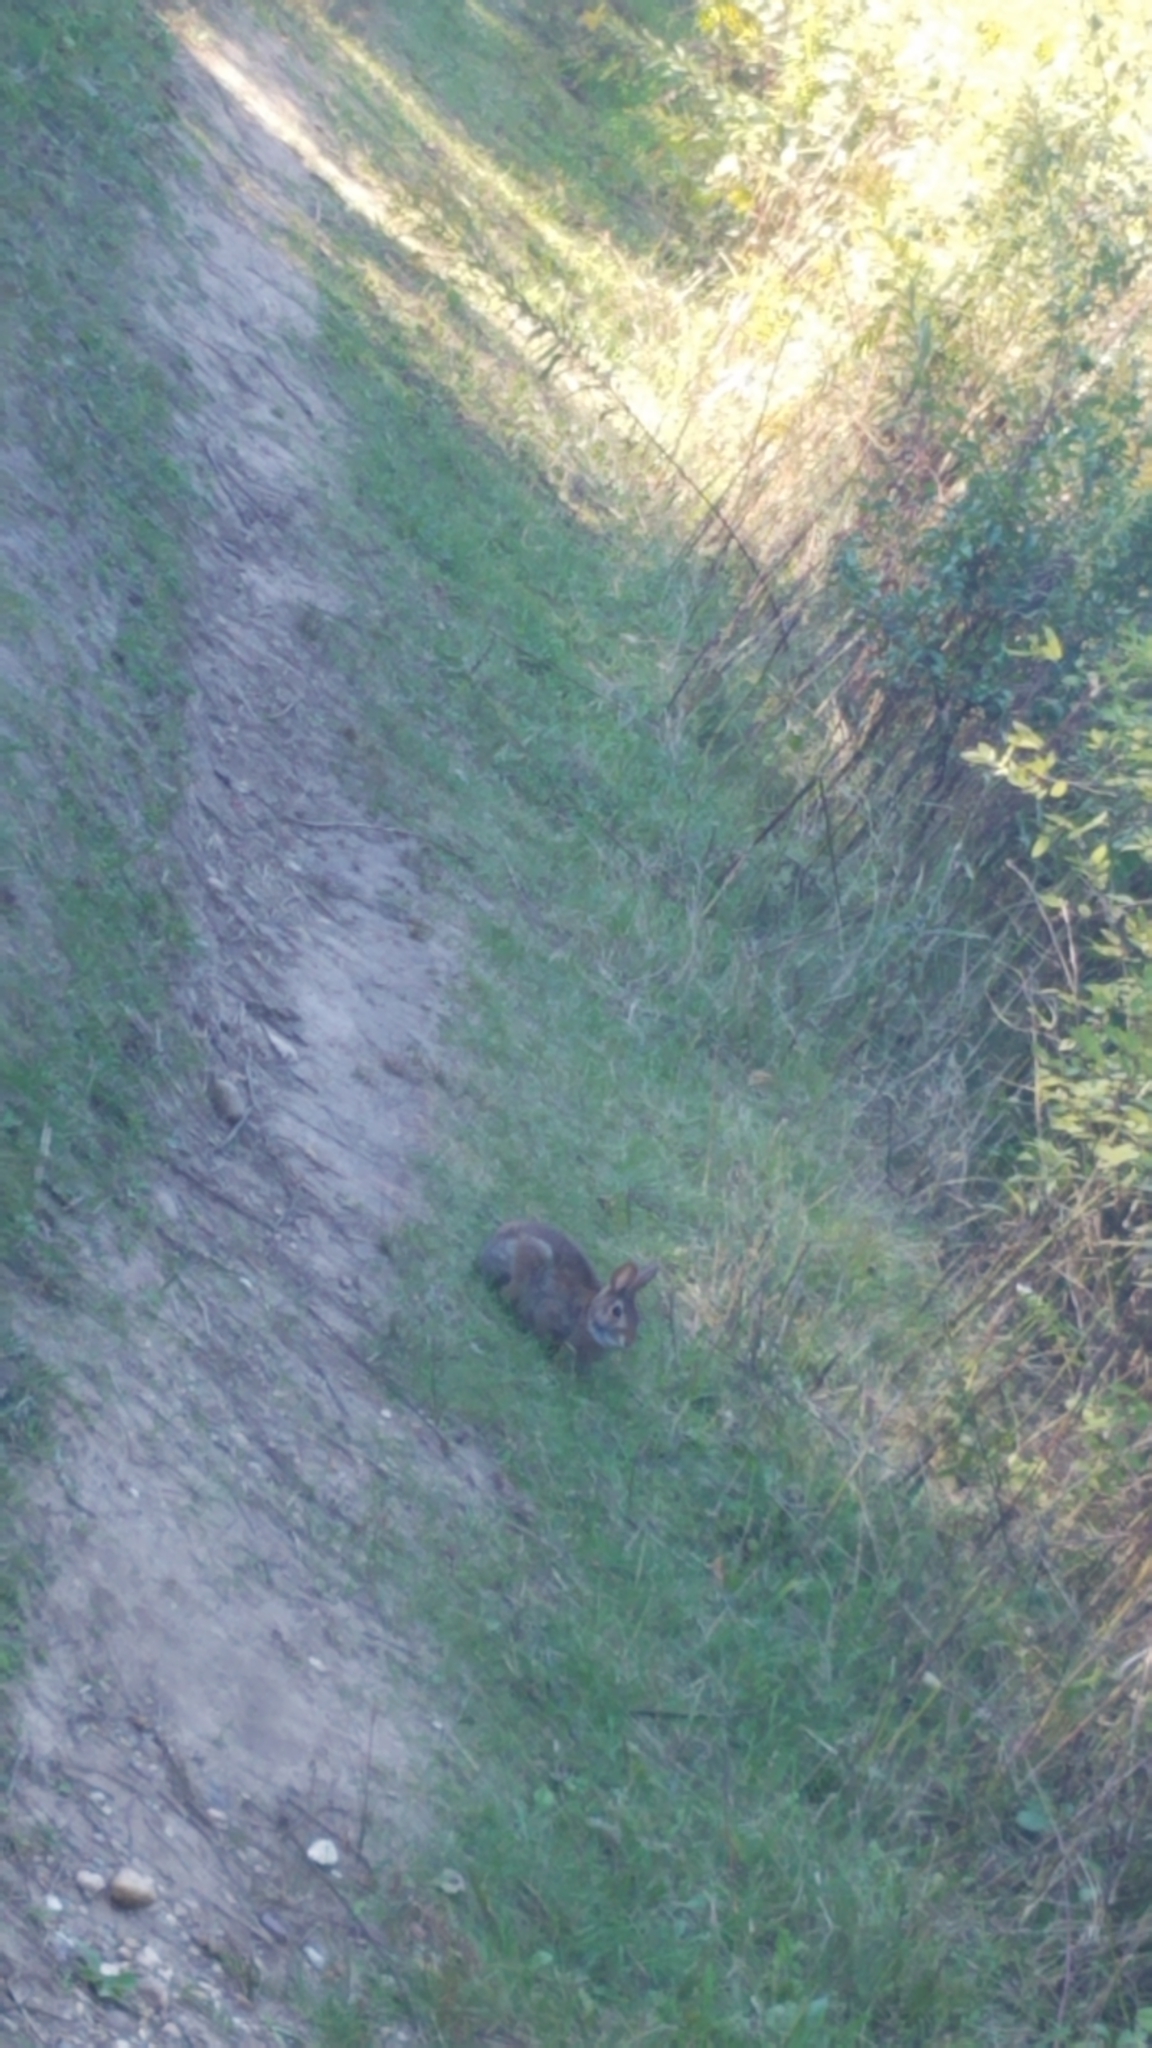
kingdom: Animalia
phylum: Chordata
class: Mammalia
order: Lagomorpha
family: Leporidae
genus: Sylvilagus
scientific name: Sylvilagus floridanus
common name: Eastern cottontail
